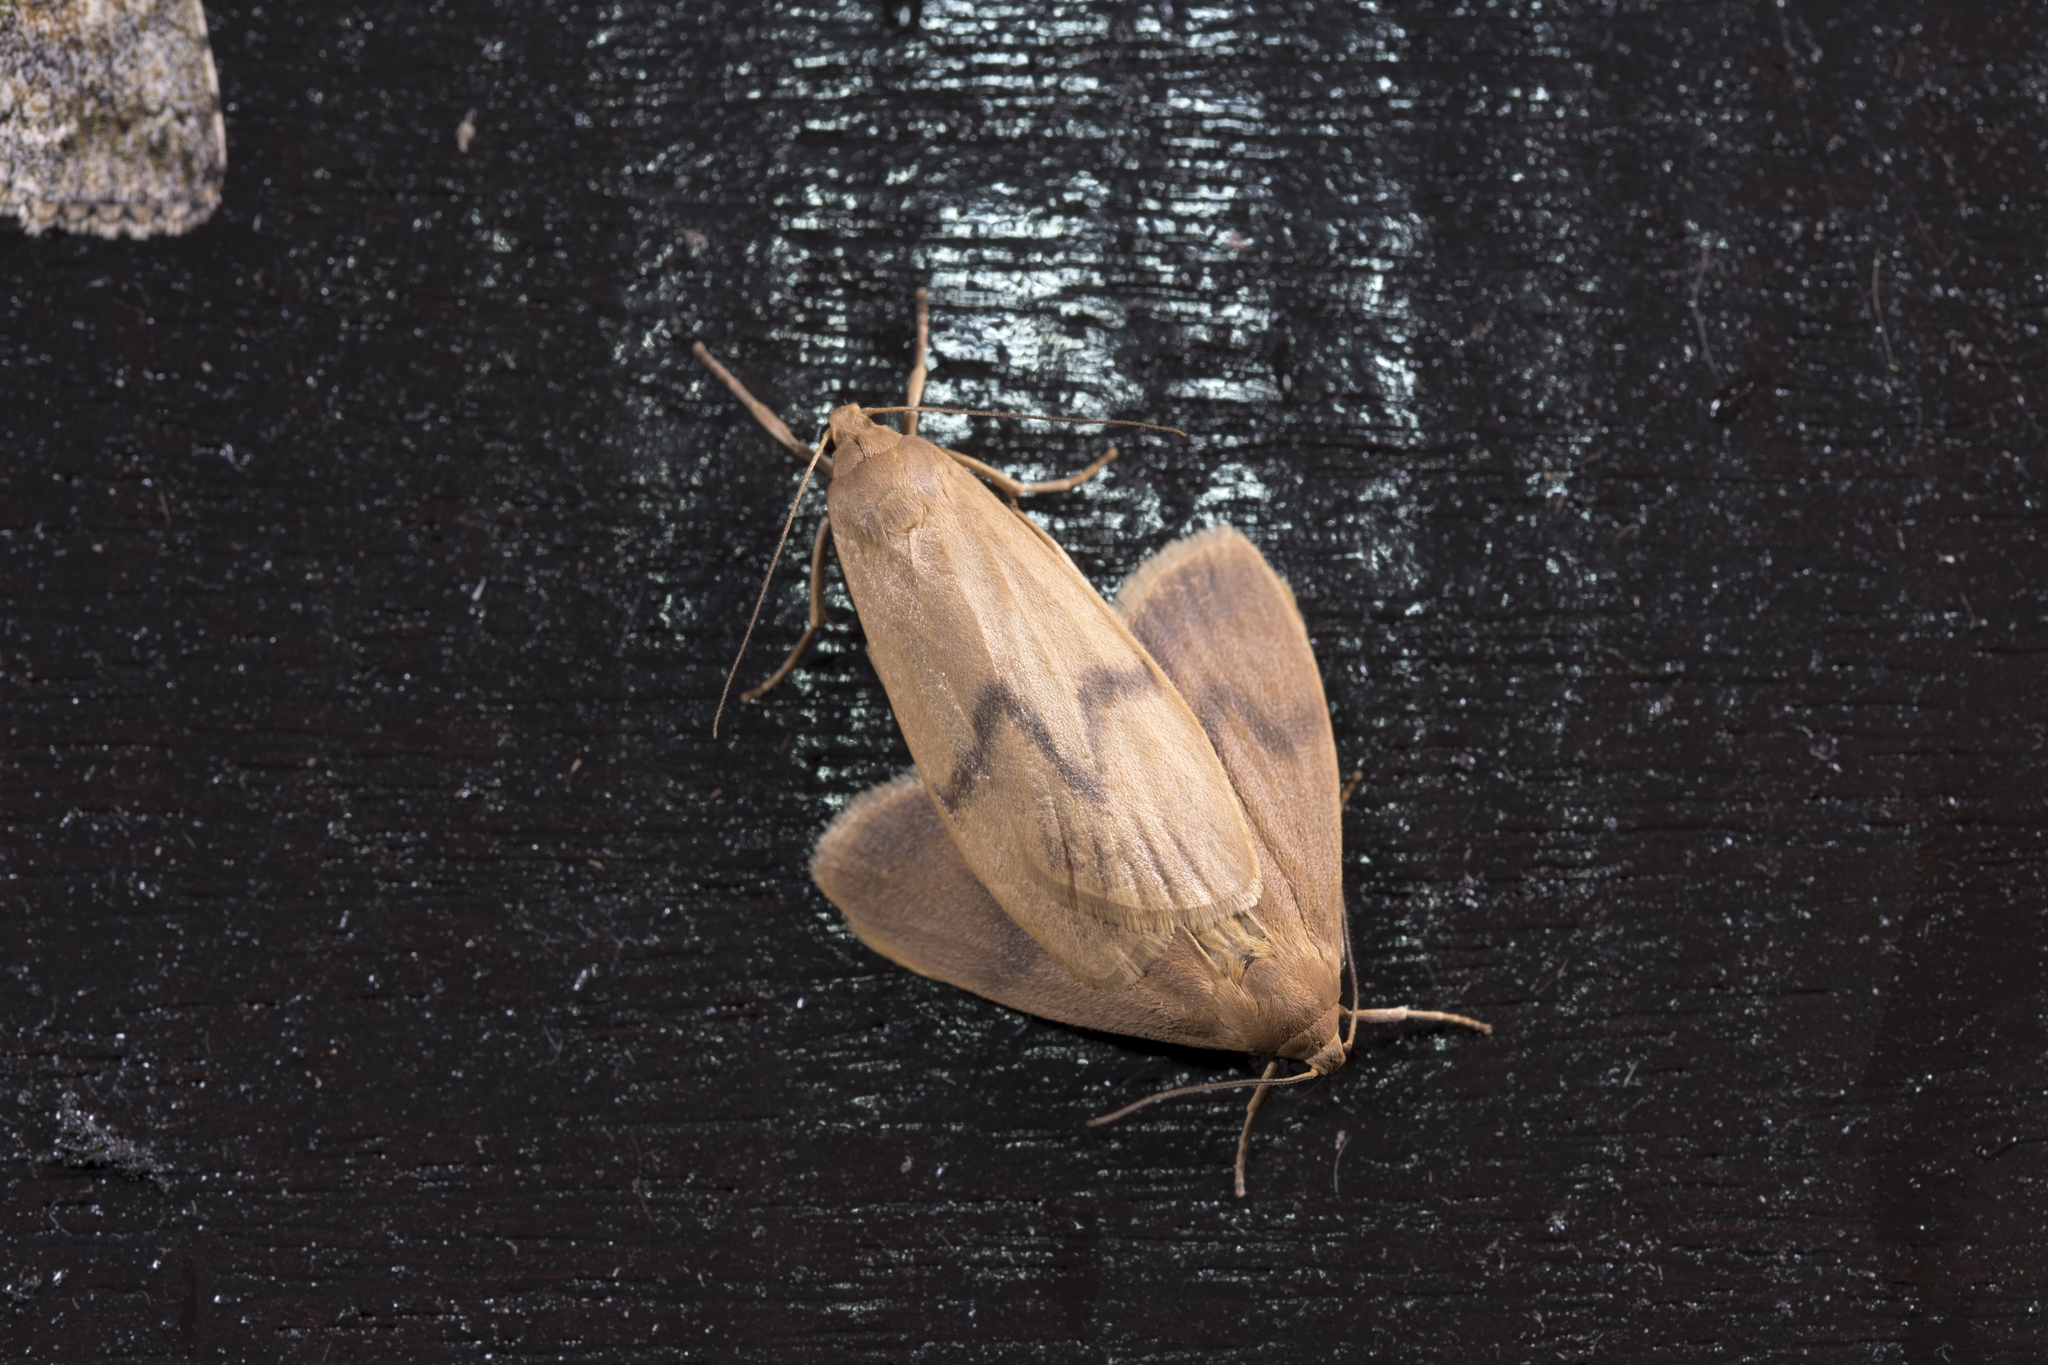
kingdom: Animalia
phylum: Arthropoda
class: Insecta
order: Lepidoptera
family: Erebidae
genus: Teuloma
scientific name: Teuloma tainebula
